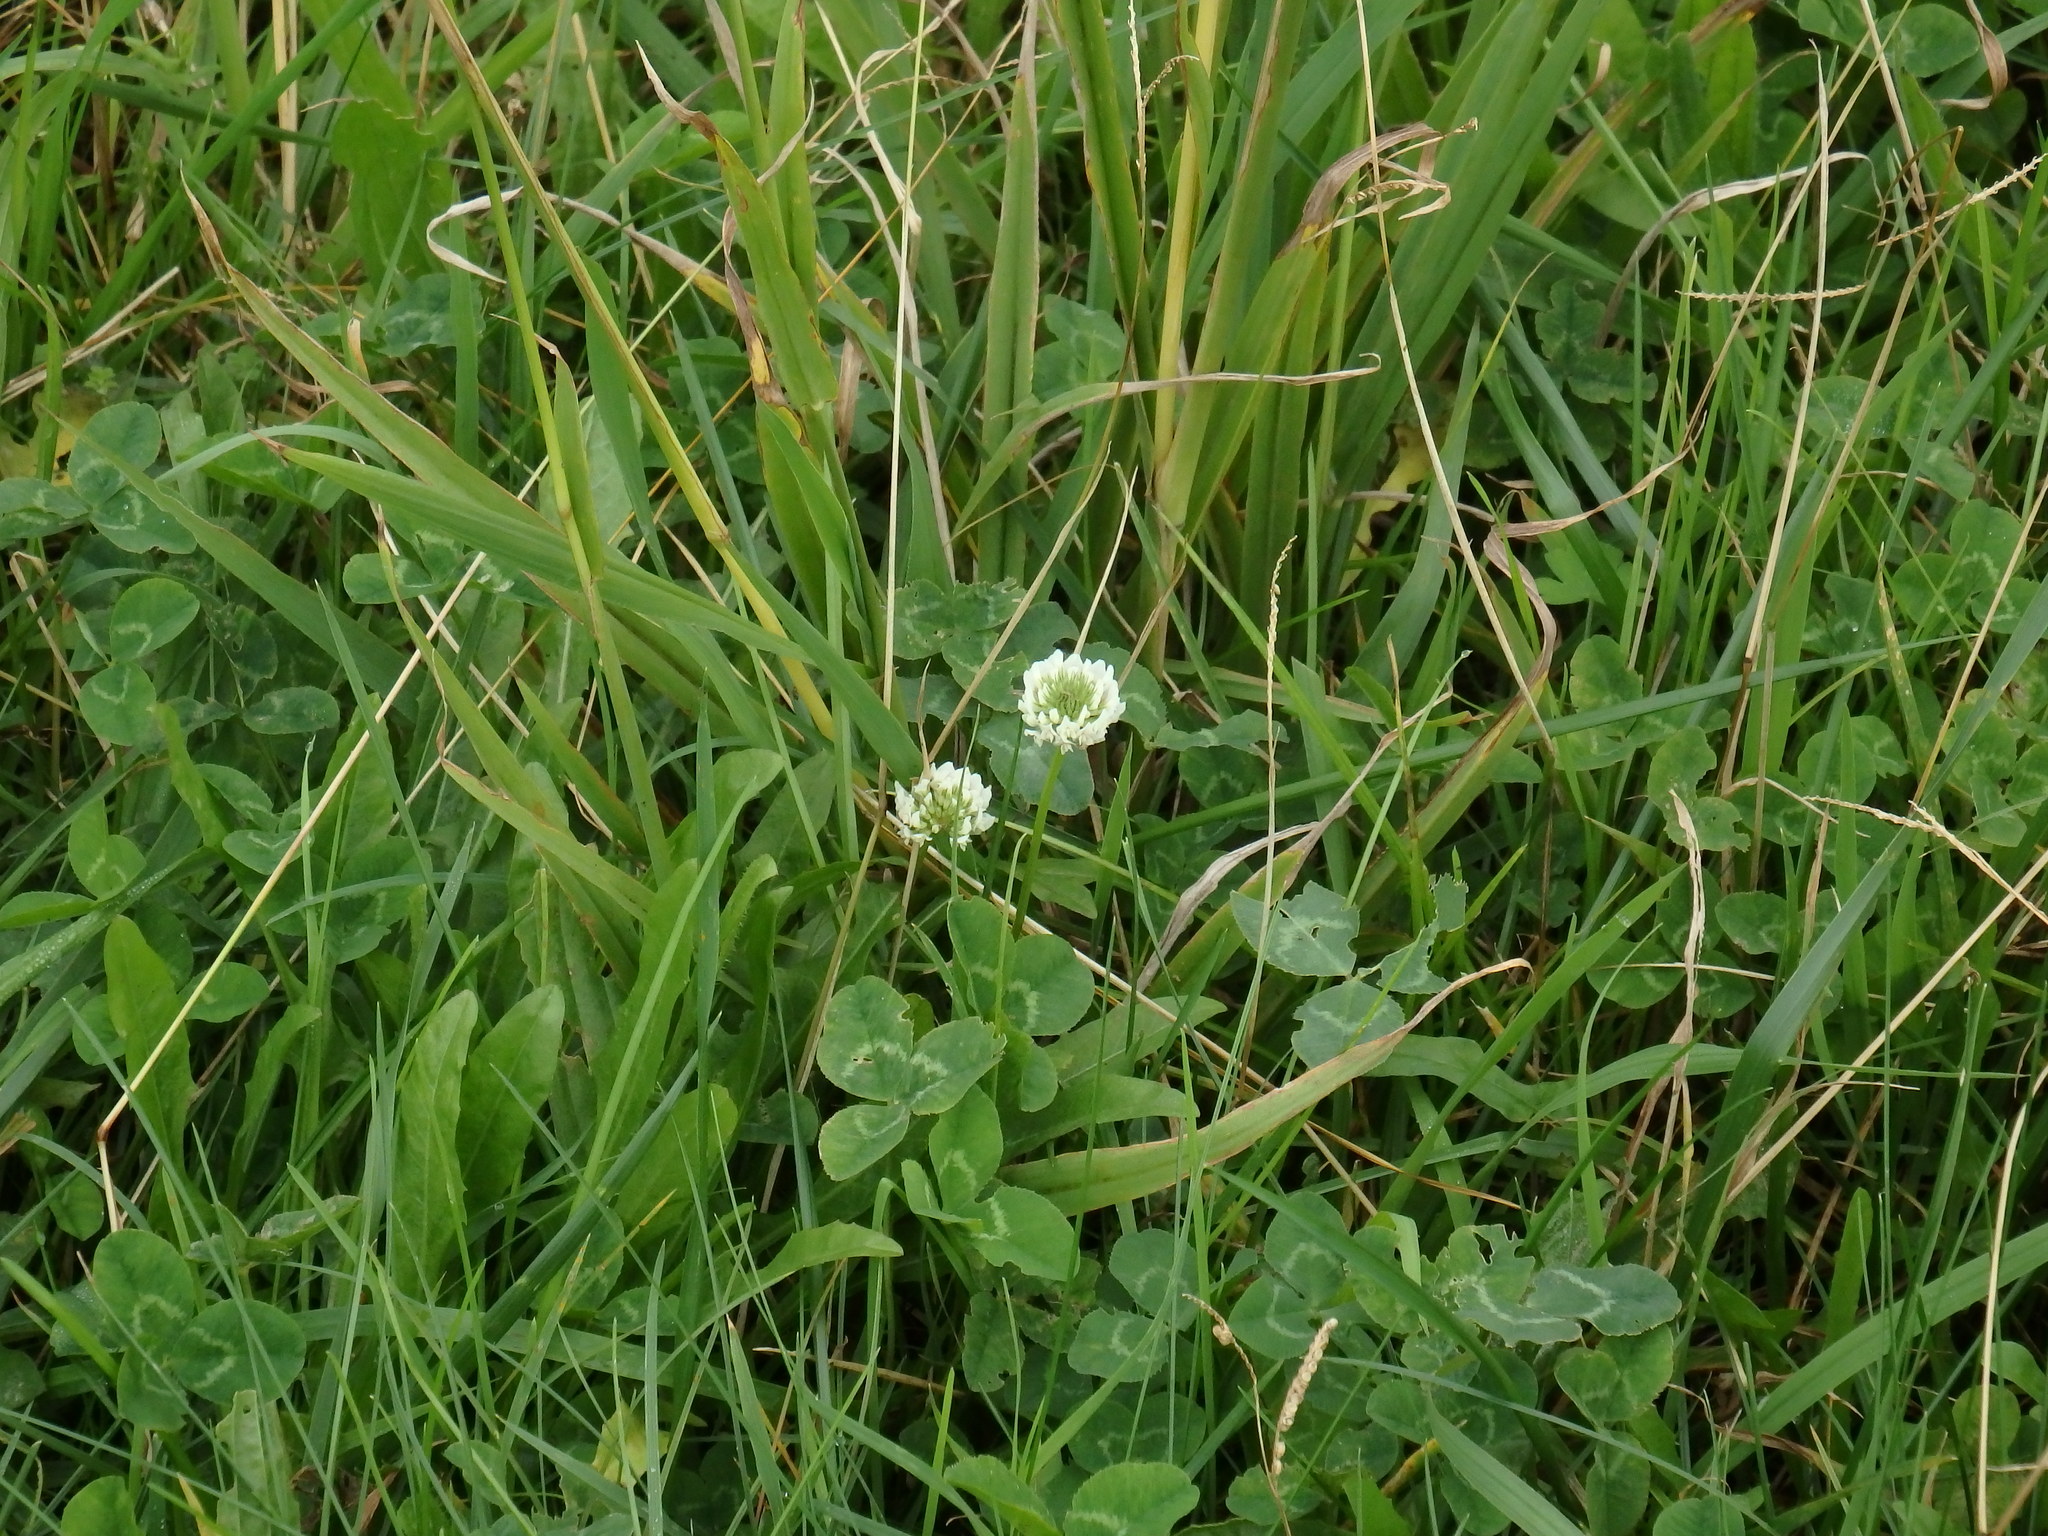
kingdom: Plantae
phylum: Tracheophyta
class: Magnoliopsida
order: Fabales
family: Fabaceae
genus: Trifolium
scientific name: Trifolium repens
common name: White clover
